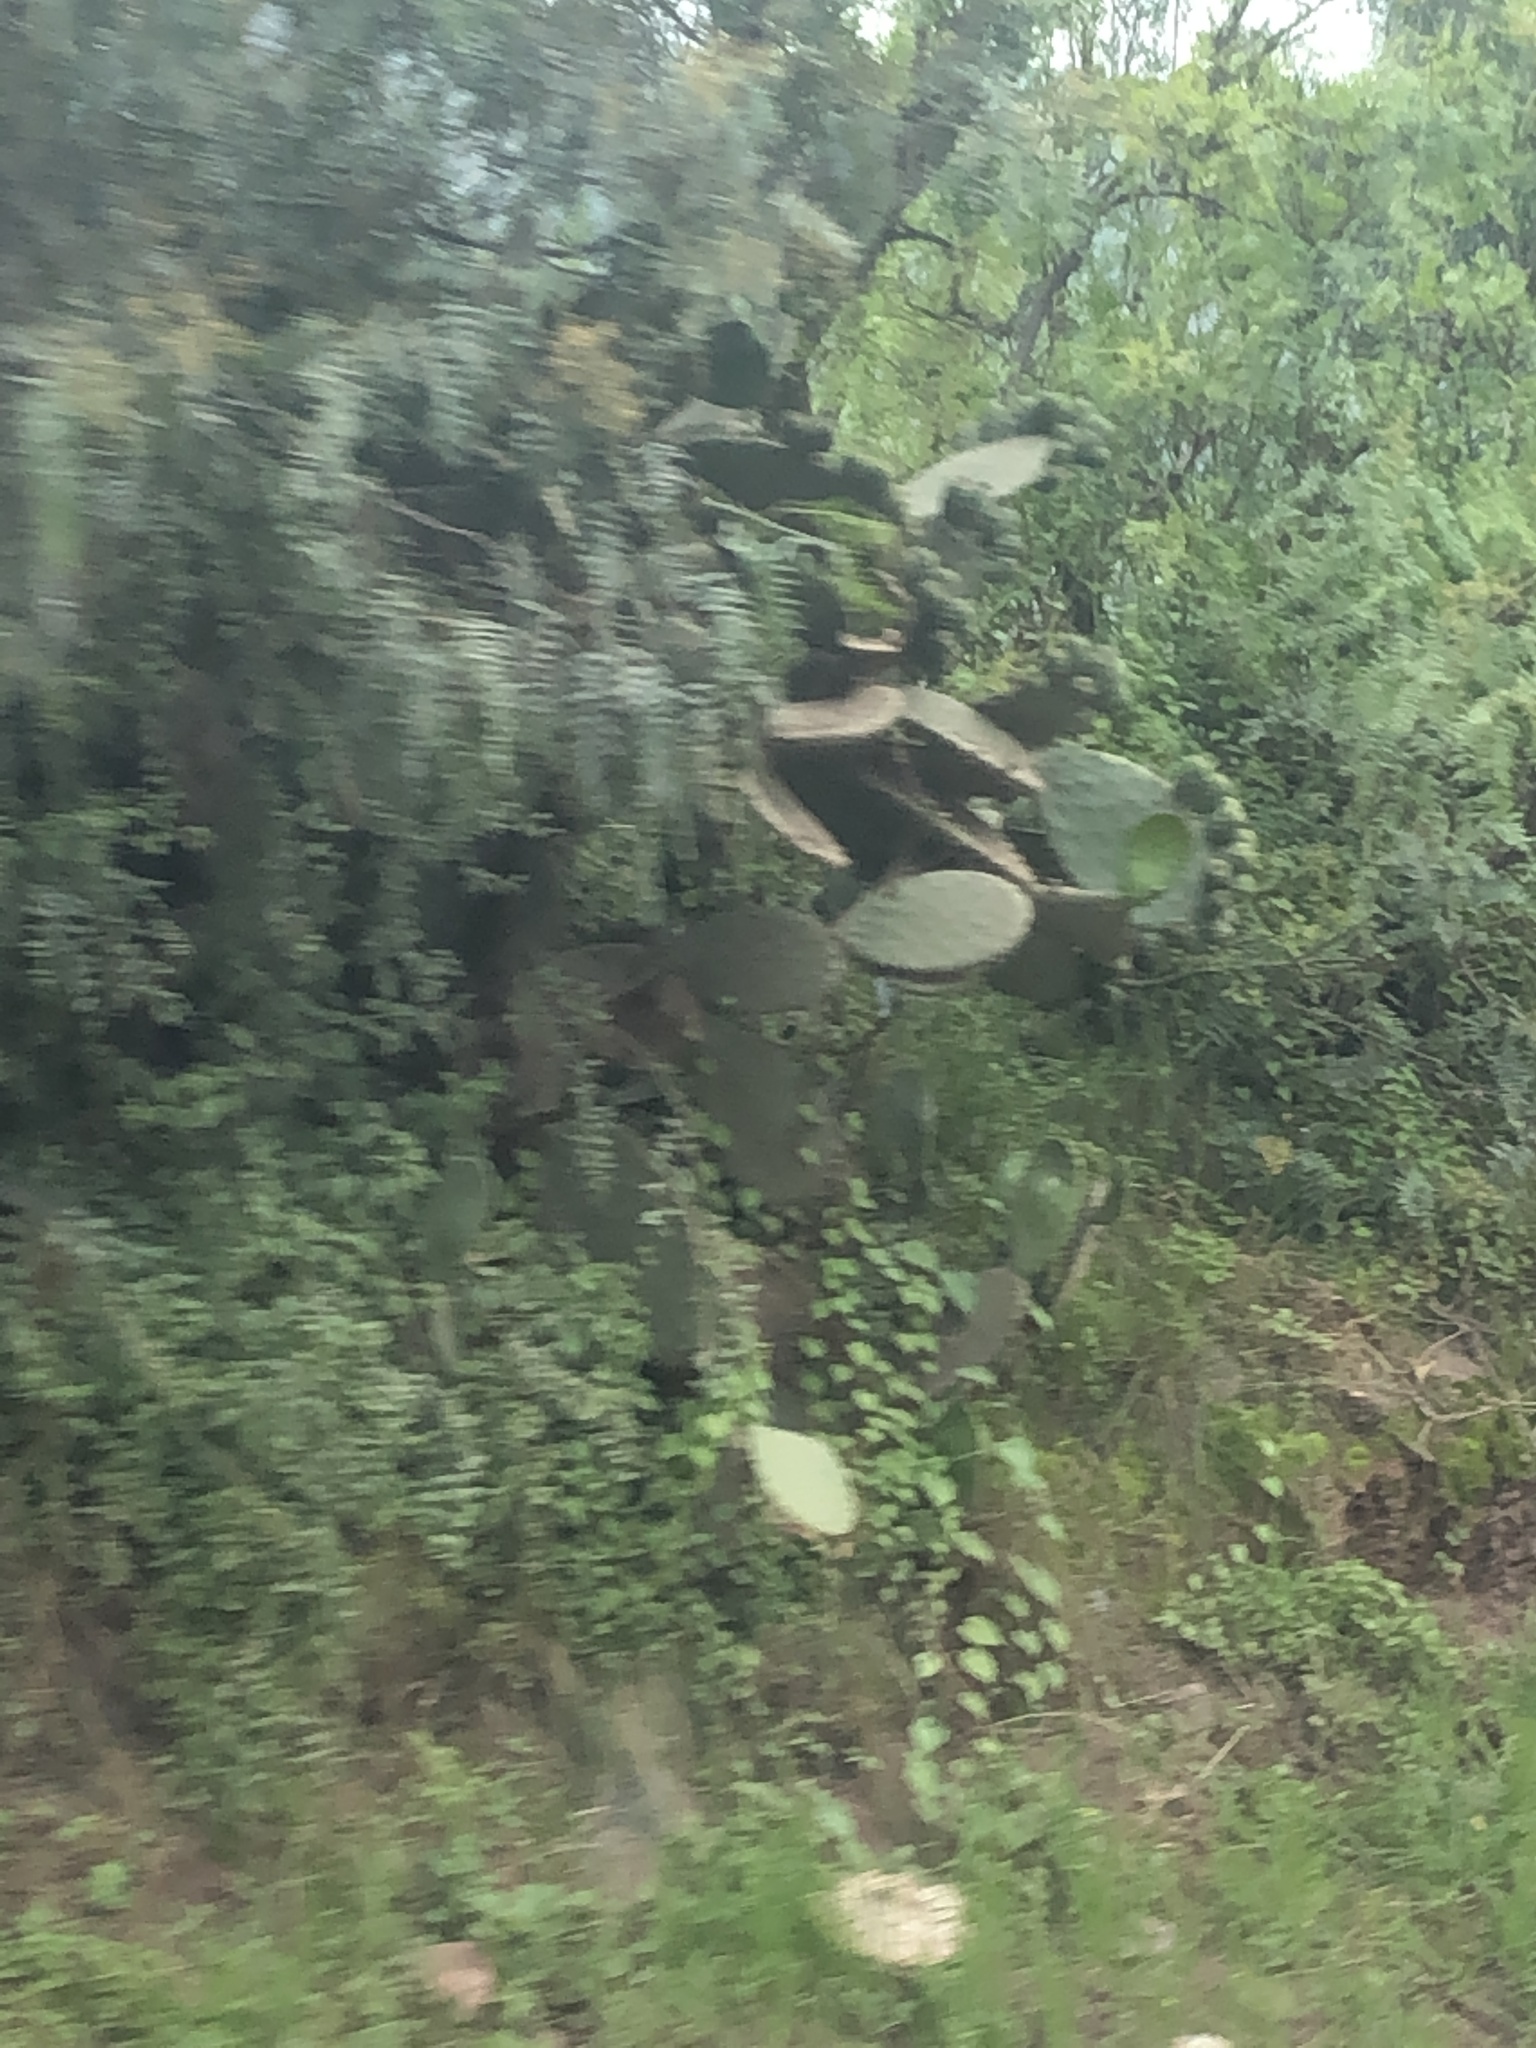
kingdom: Plantae
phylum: Tracheophyta
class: Magnoliopsida
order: Caryophyllales
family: Cactaceae
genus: Opuntia
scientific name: Opuntia ficus-indica
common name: Barbary fig
